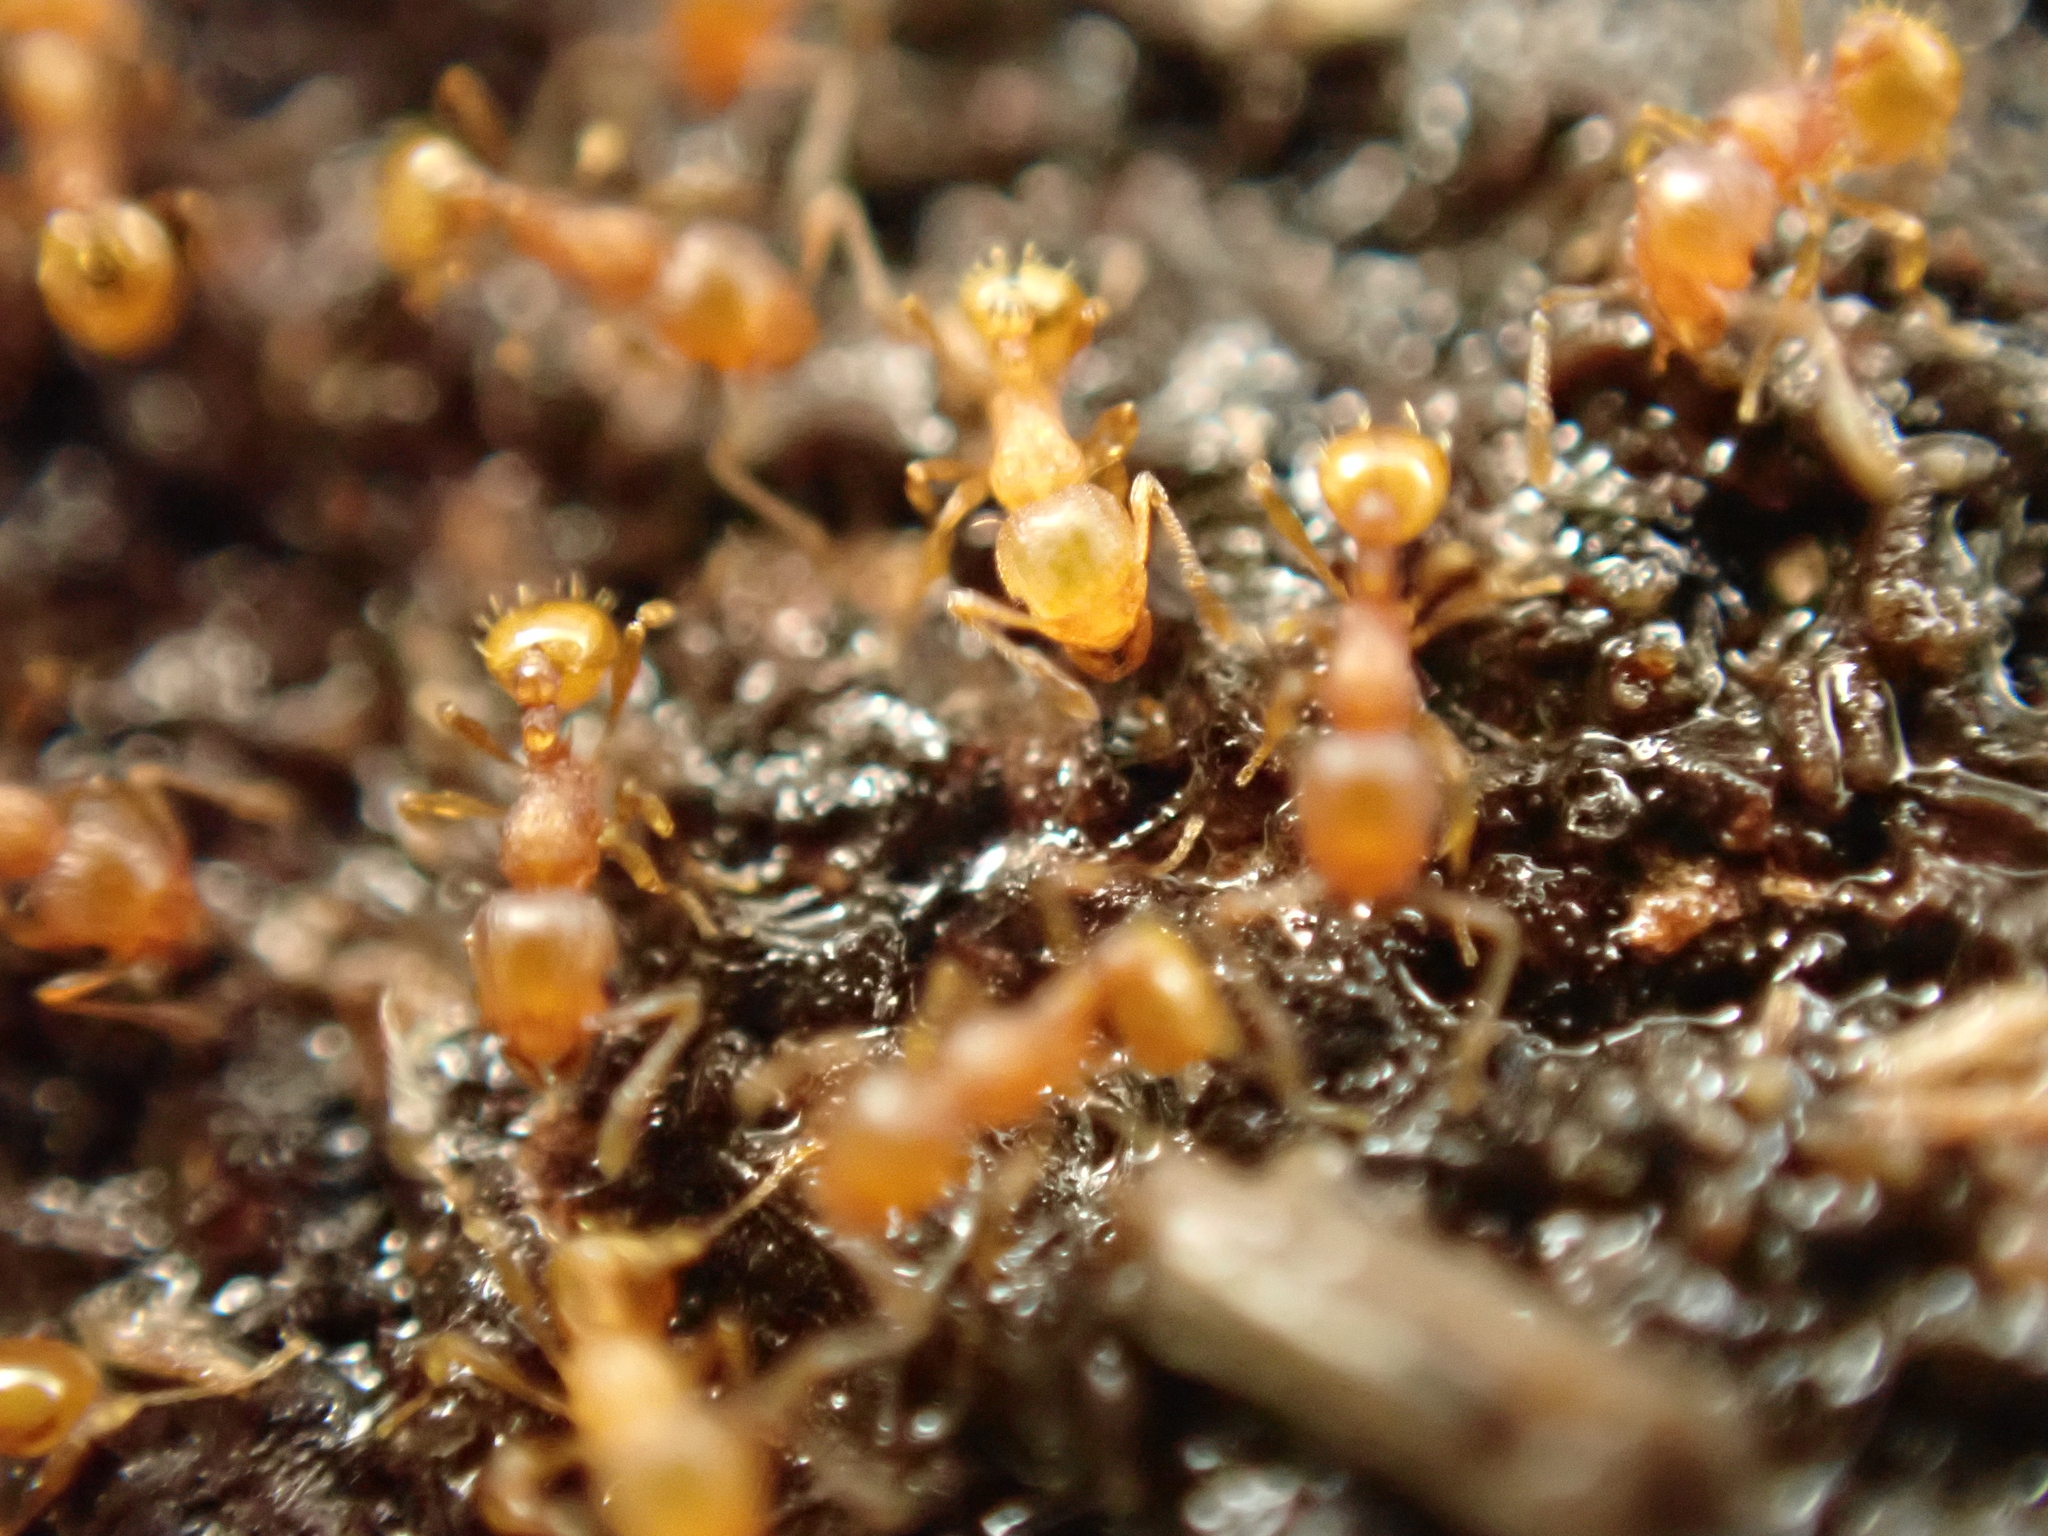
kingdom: Animalia
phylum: Arthropoda
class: Insecta
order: Hymenoptera
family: Formicidae
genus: Wasmannia
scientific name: Wasmannia auropunctata
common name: Little fire ant
